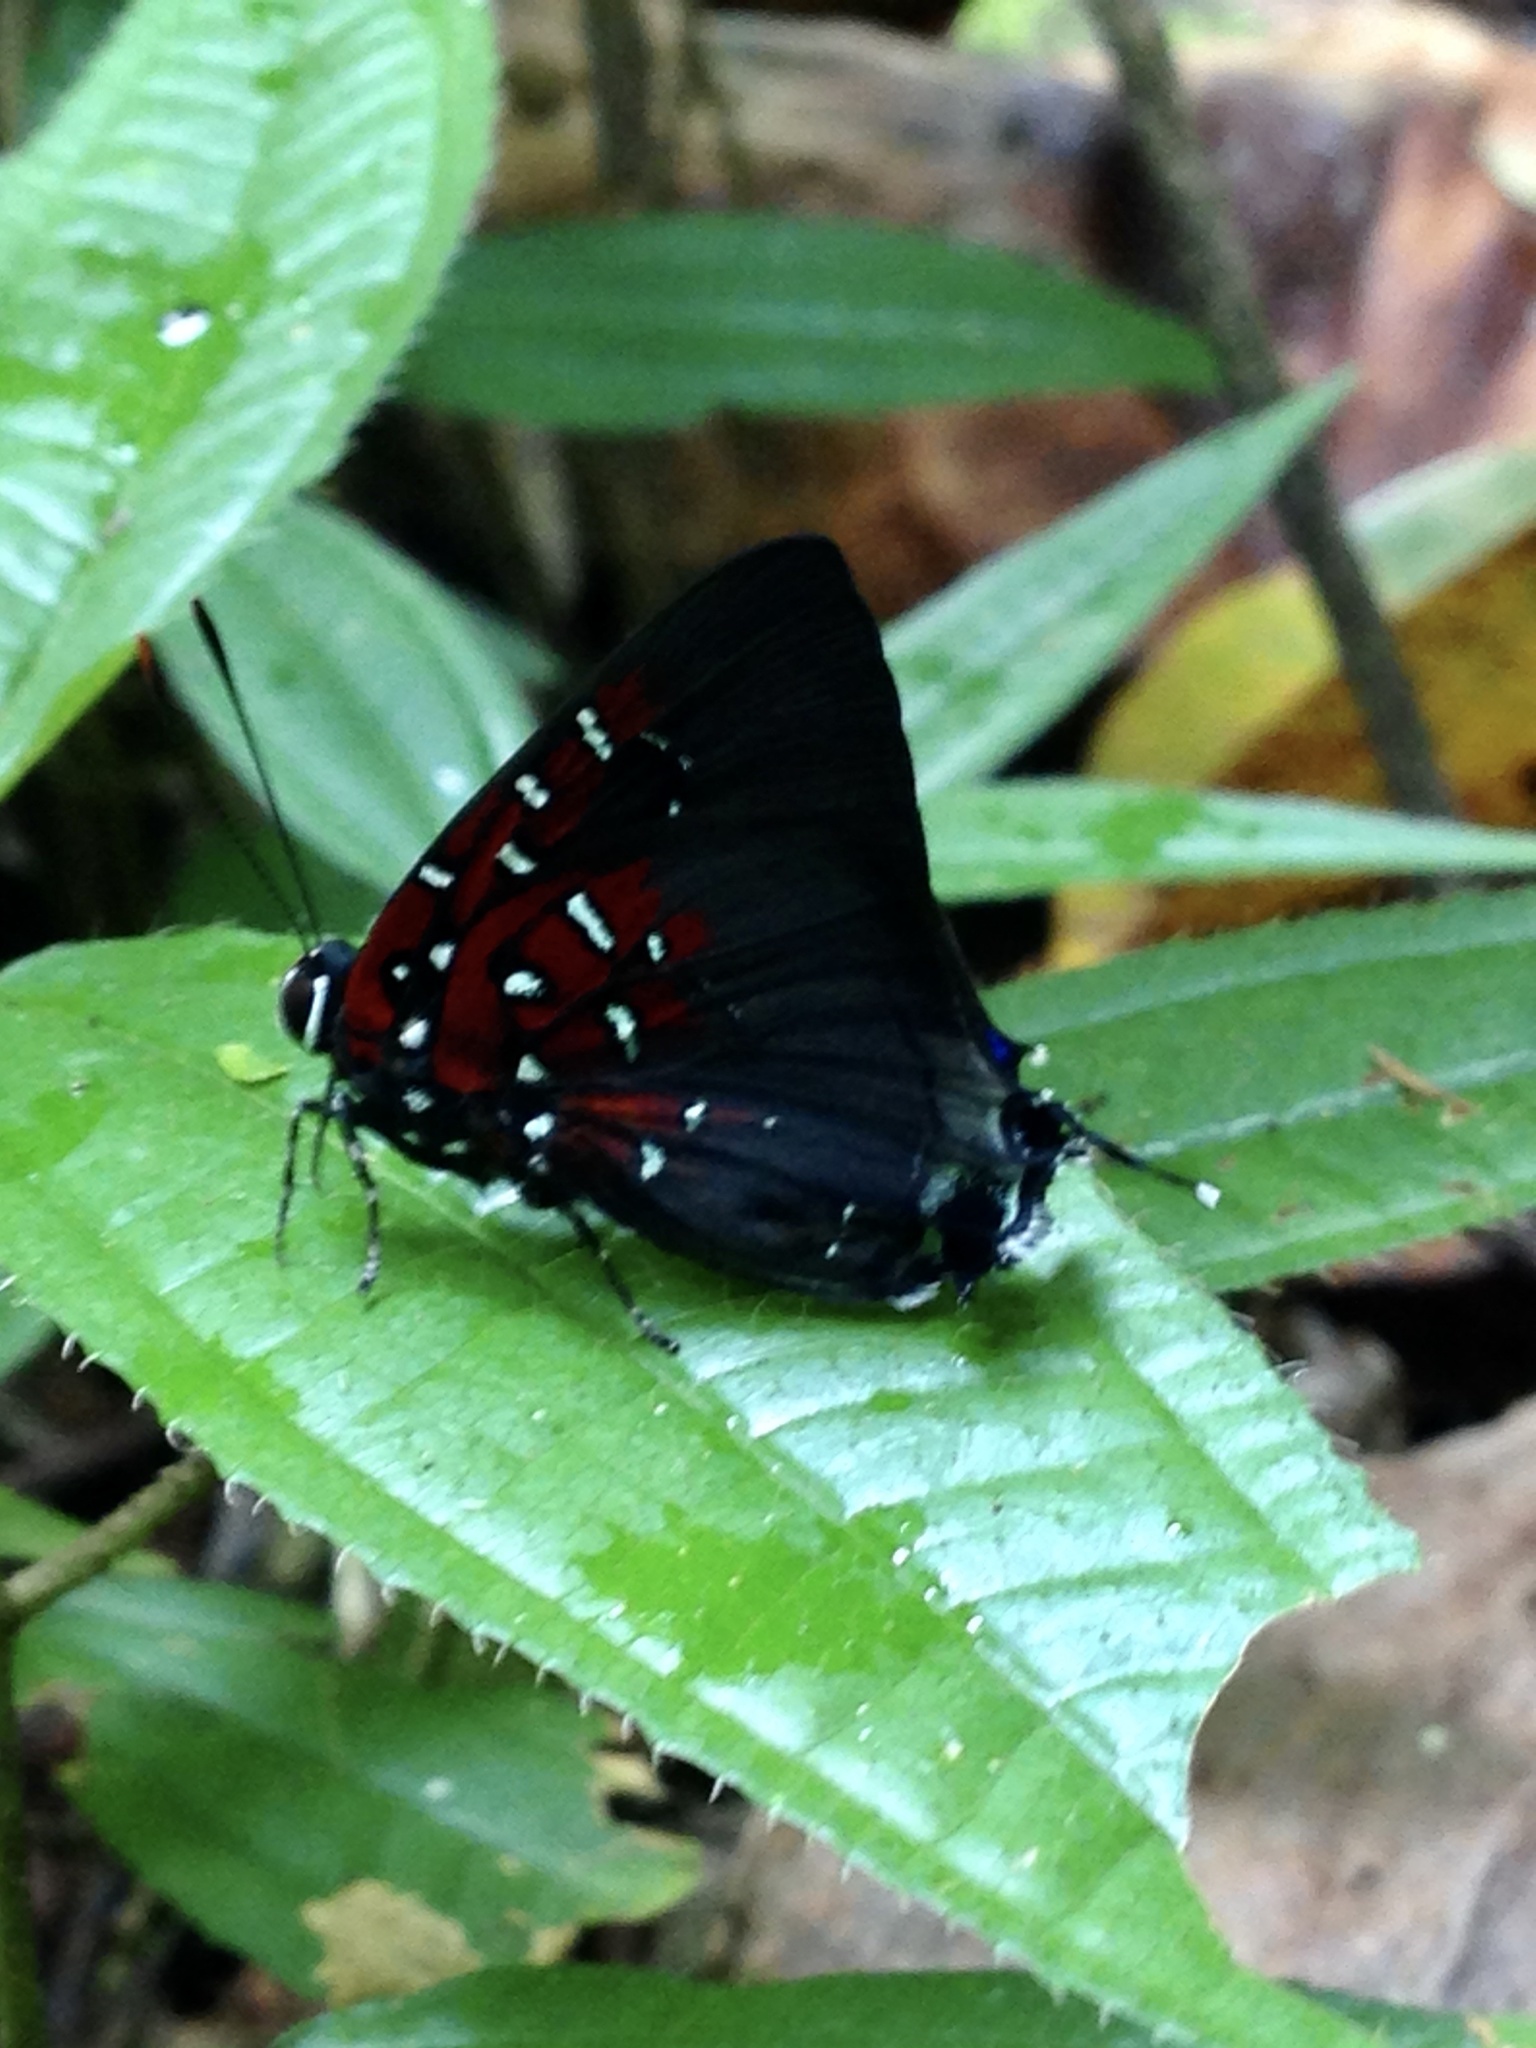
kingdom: Animalia
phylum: Arthropoda
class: Insecta
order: Lepidoptera
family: Lycaenidae
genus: Thecla
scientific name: Thecla getus
